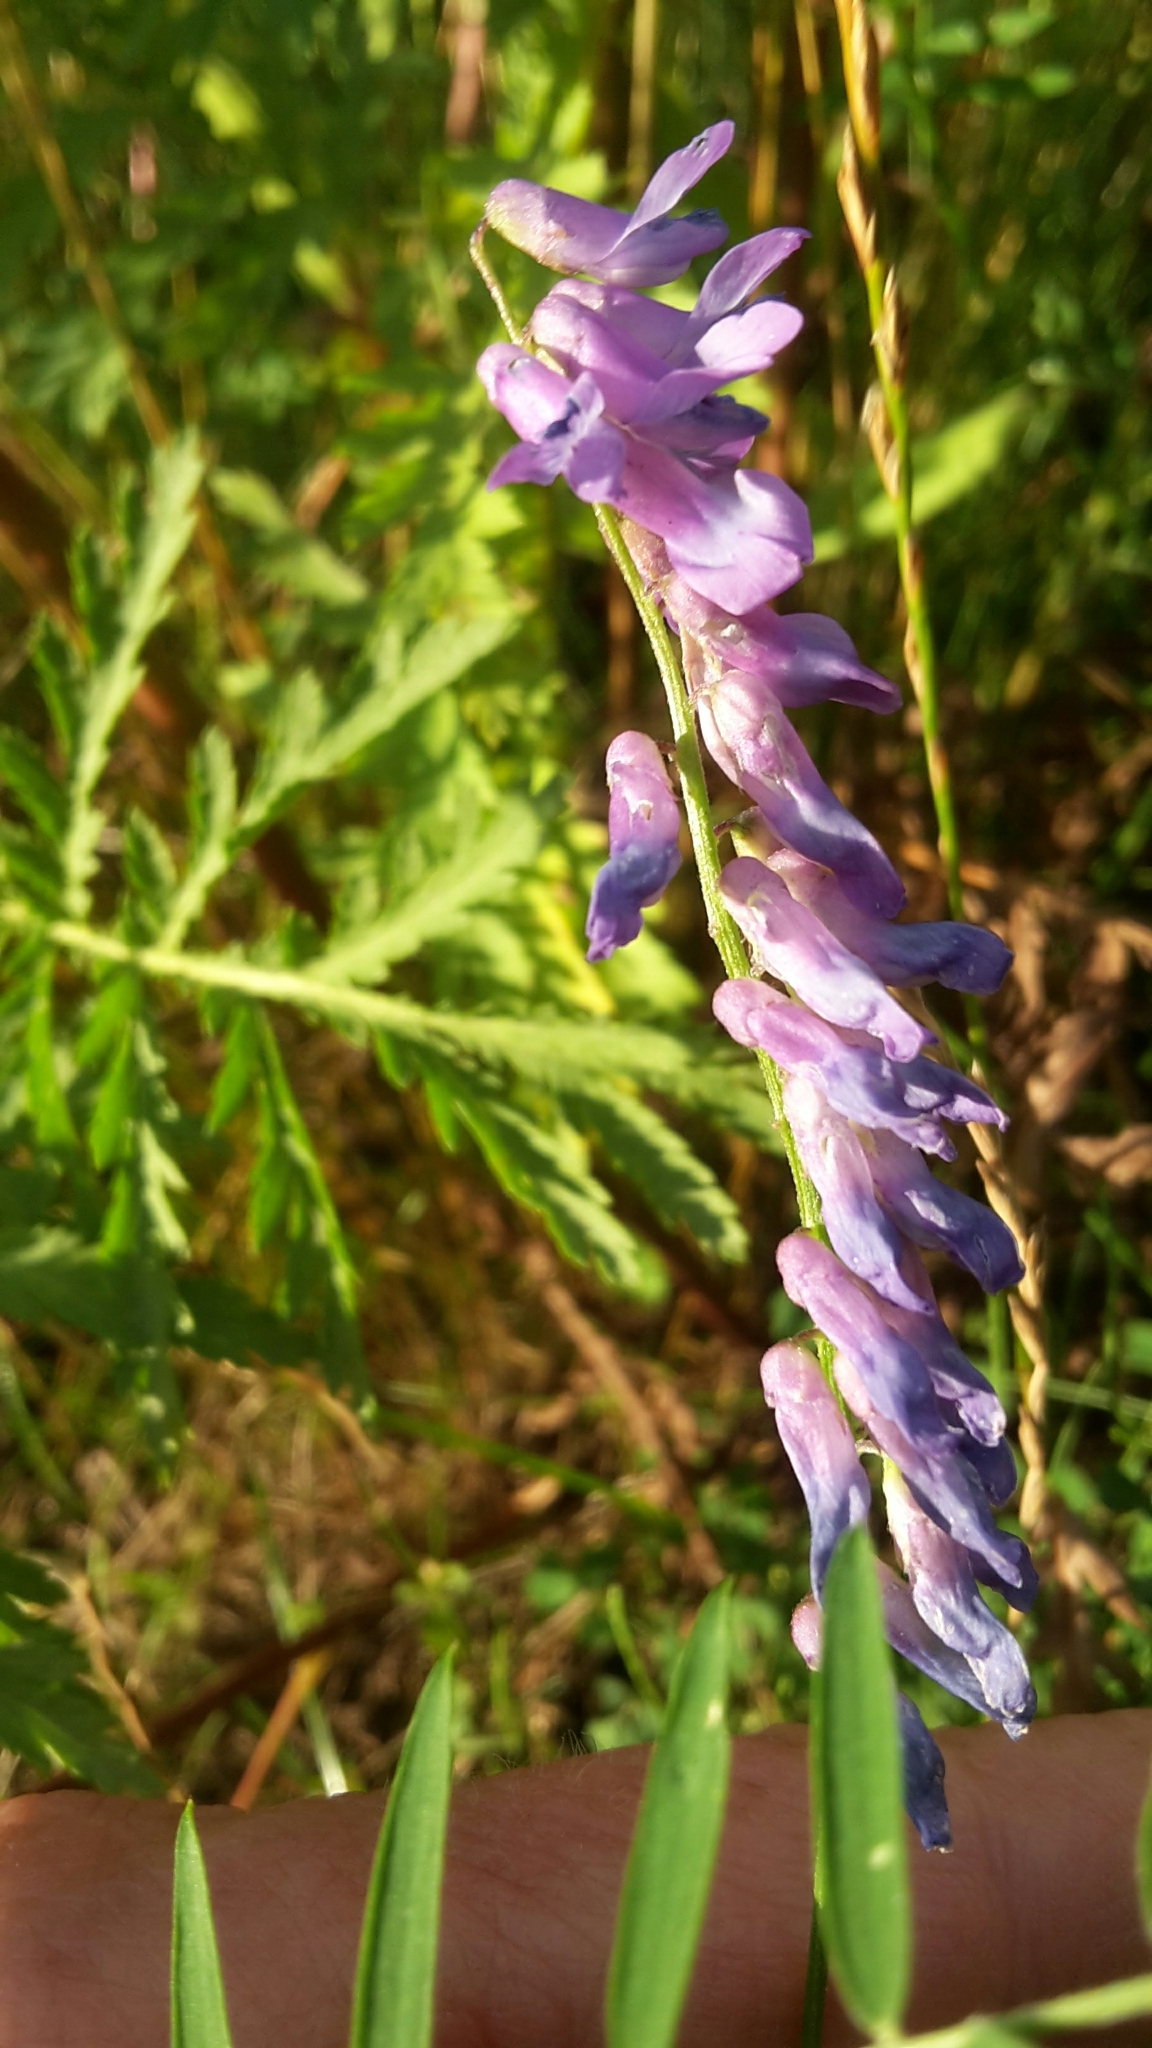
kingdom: Plantae
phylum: Tracheophyta
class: Magnoliopsida
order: Fabales
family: Fabaceae
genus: Vicia
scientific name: Vicia cracca
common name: Bird vetch
